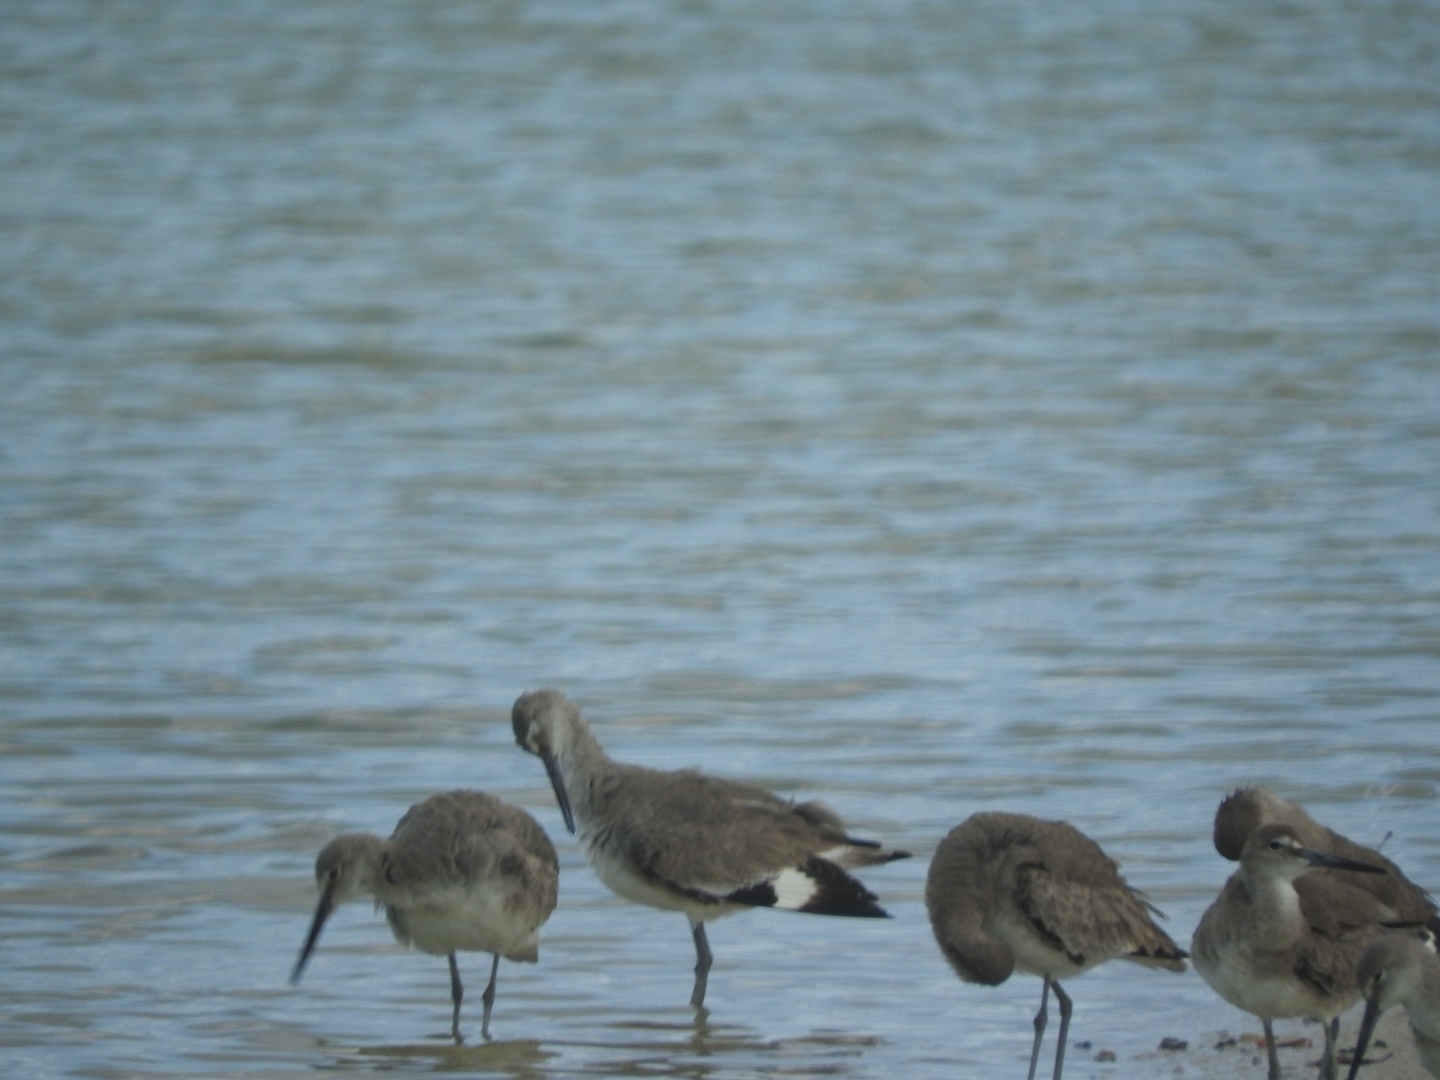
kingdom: Animalia
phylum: Chordata
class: Aves
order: Charadriiformes
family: Scolopacidae
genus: Tringa
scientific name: Tringa semipalmata
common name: Willet
